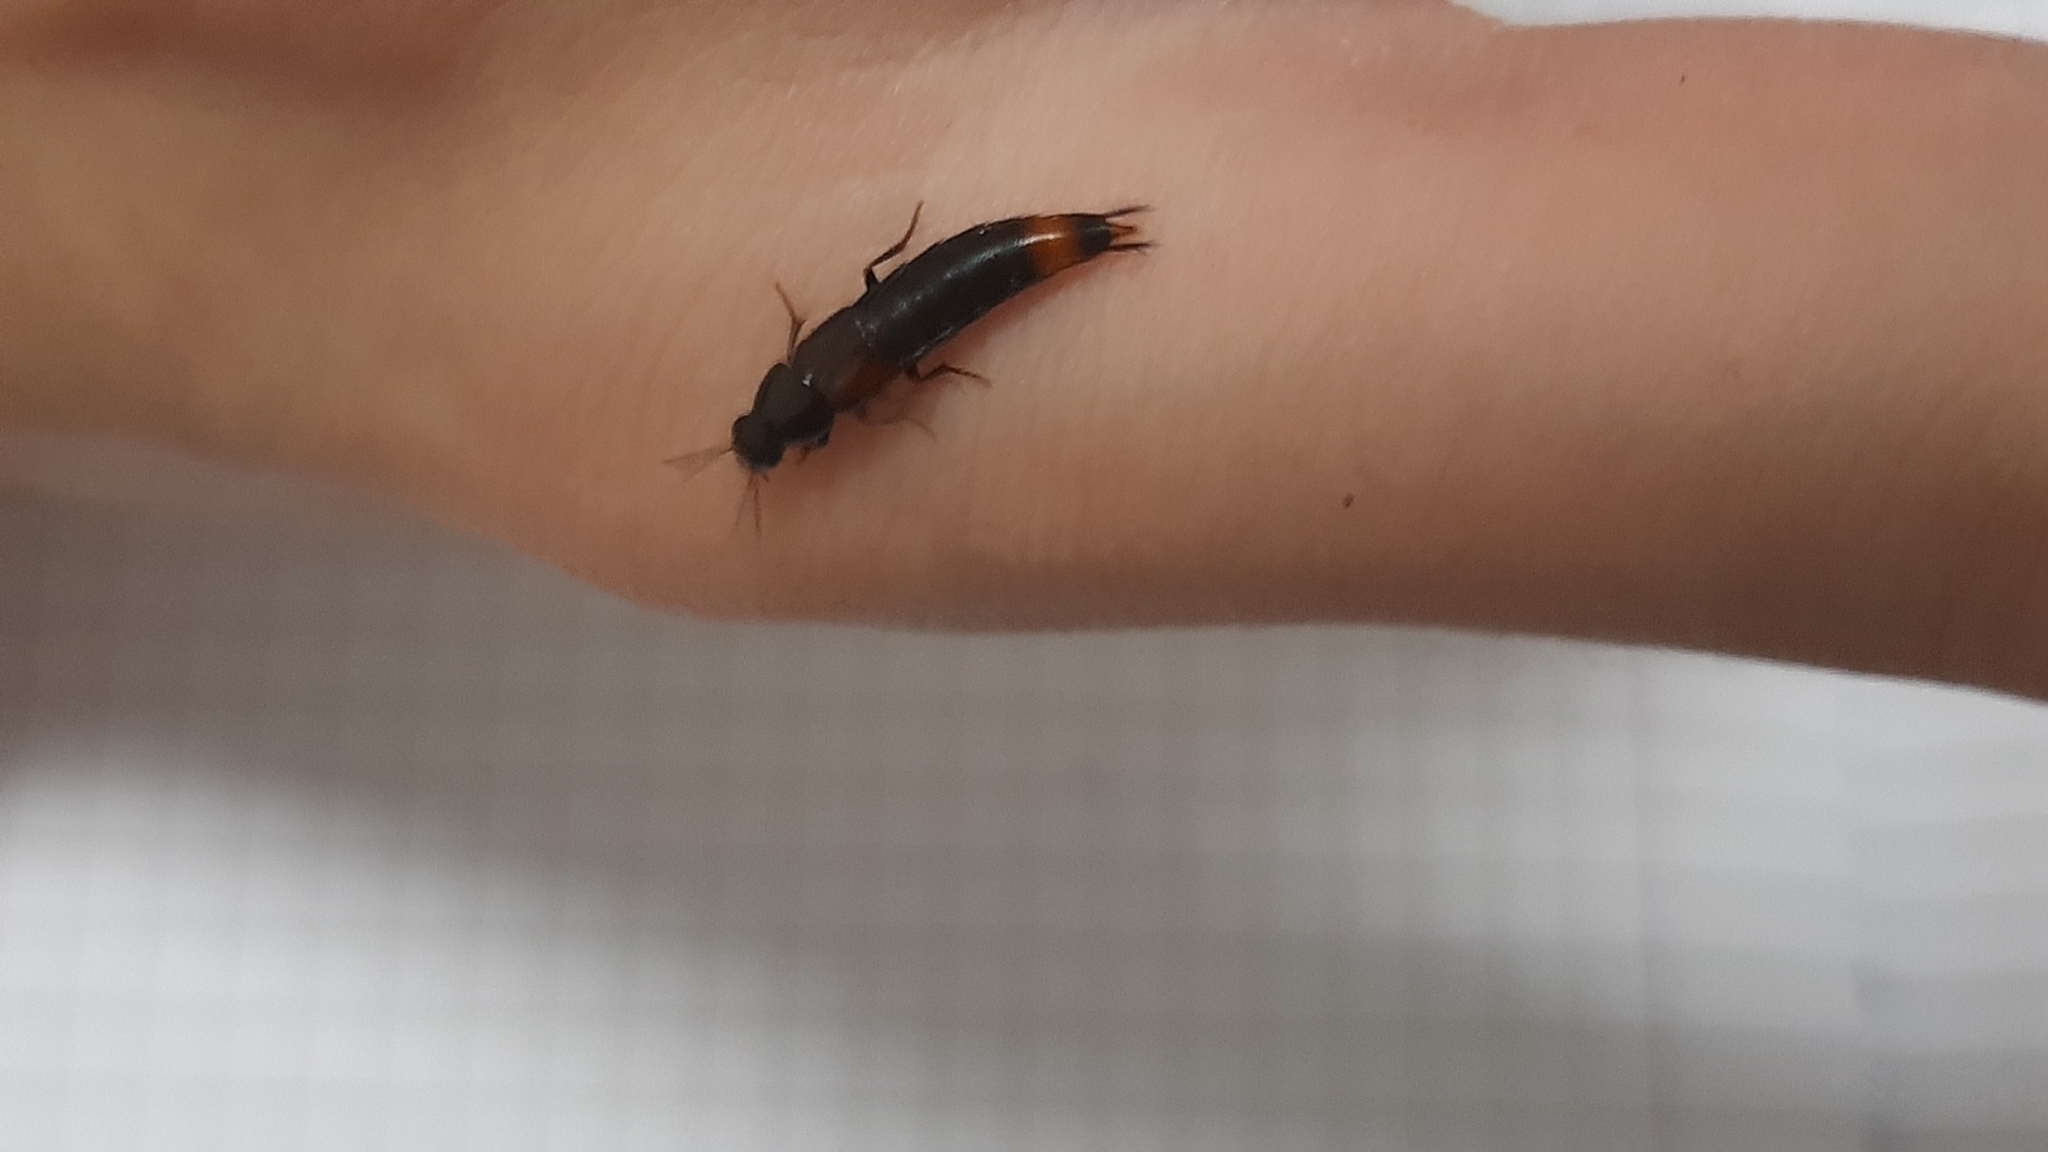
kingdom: Animalia
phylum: Arthropoda
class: Insecta
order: Coleoptera
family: Staphylinidae
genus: Astrapaeus
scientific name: Astrapaeus ulmi
